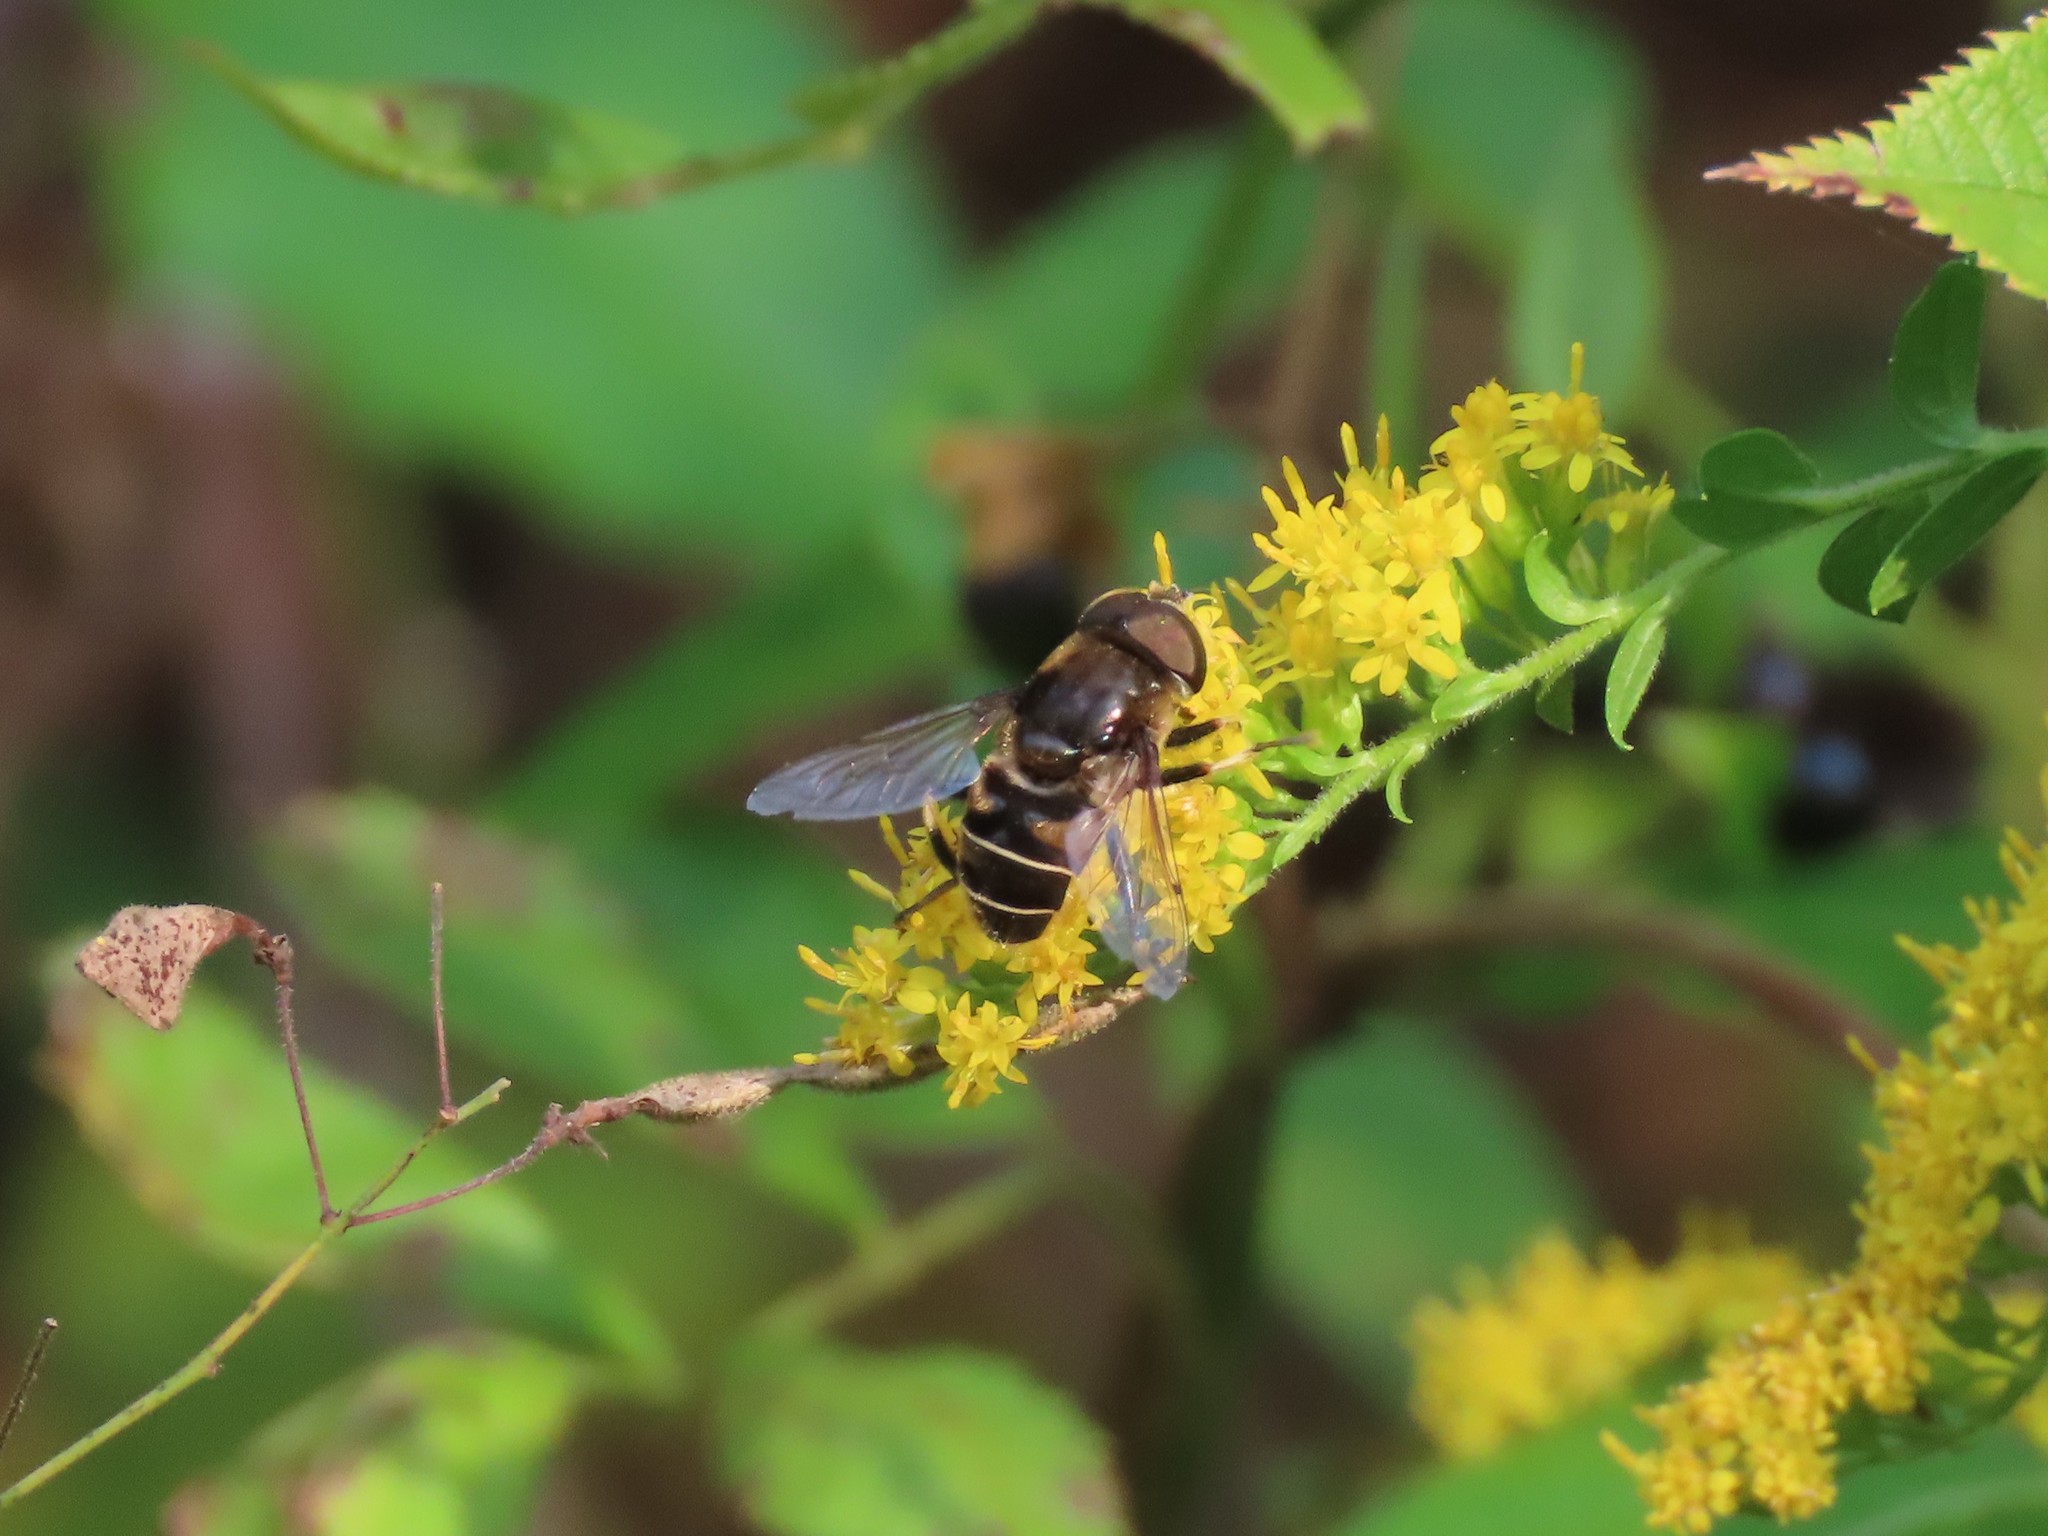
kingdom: Animalia
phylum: Arthropoda
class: Insecta
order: Diptera
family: Syrphidae
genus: Eristalis
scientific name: Eristalis dimidiata
